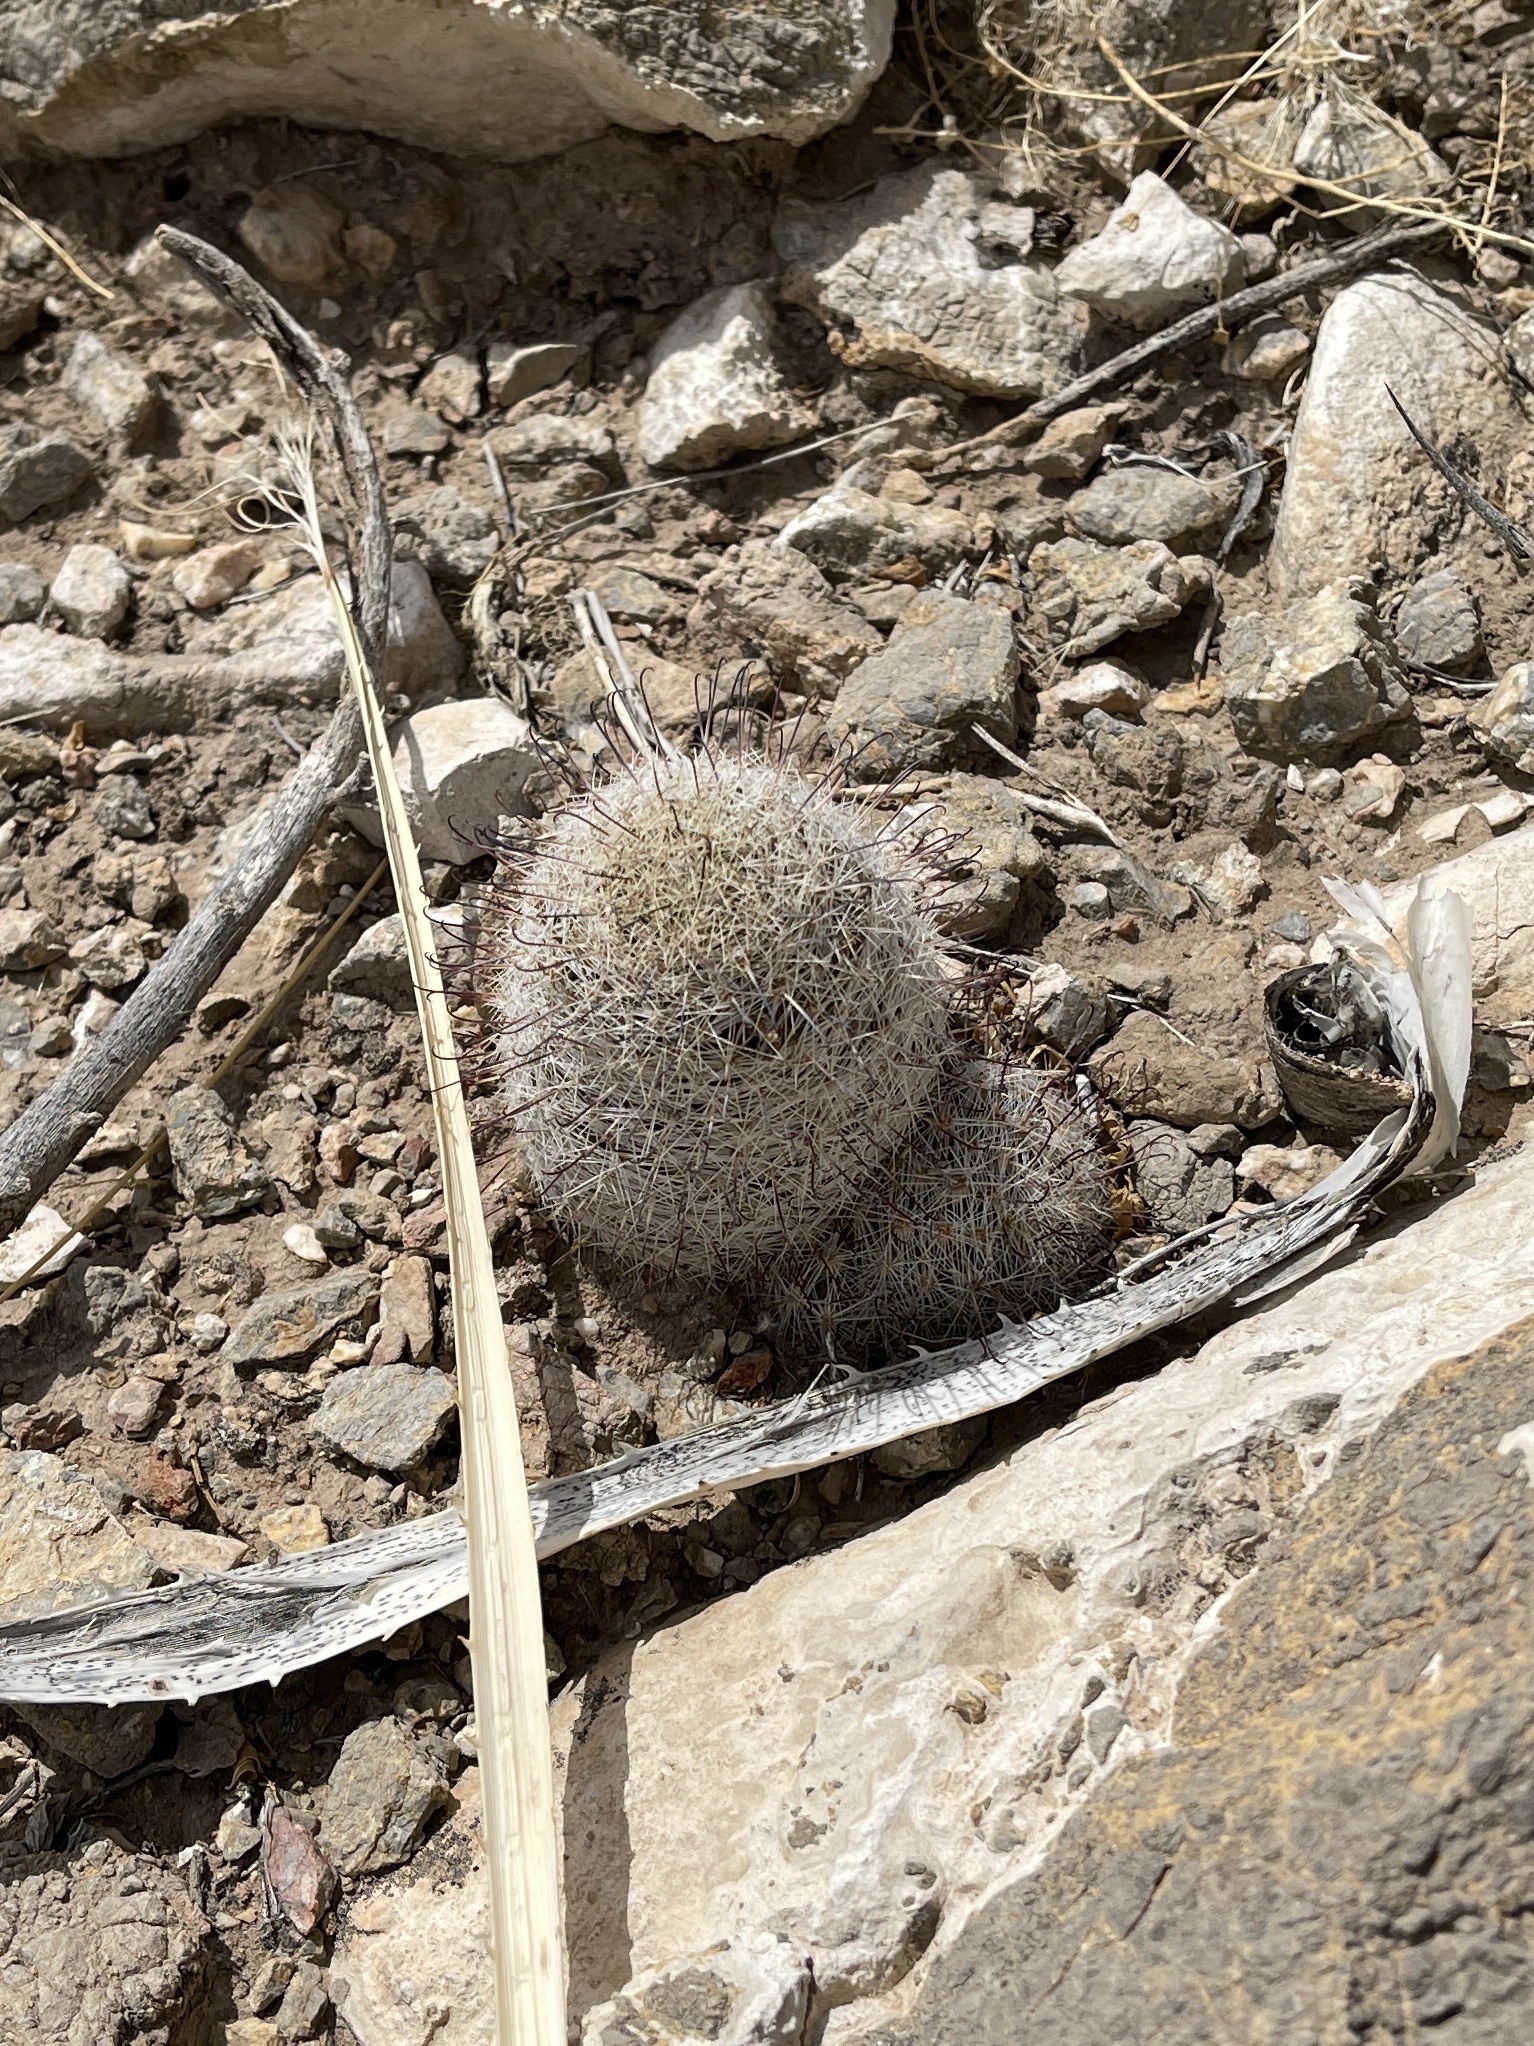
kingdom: Plantae
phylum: Tracheophyta
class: Magnoliopsida
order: Caryophyllales
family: Cactaceae
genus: Cochemiea
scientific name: Cochemiea grahamii
